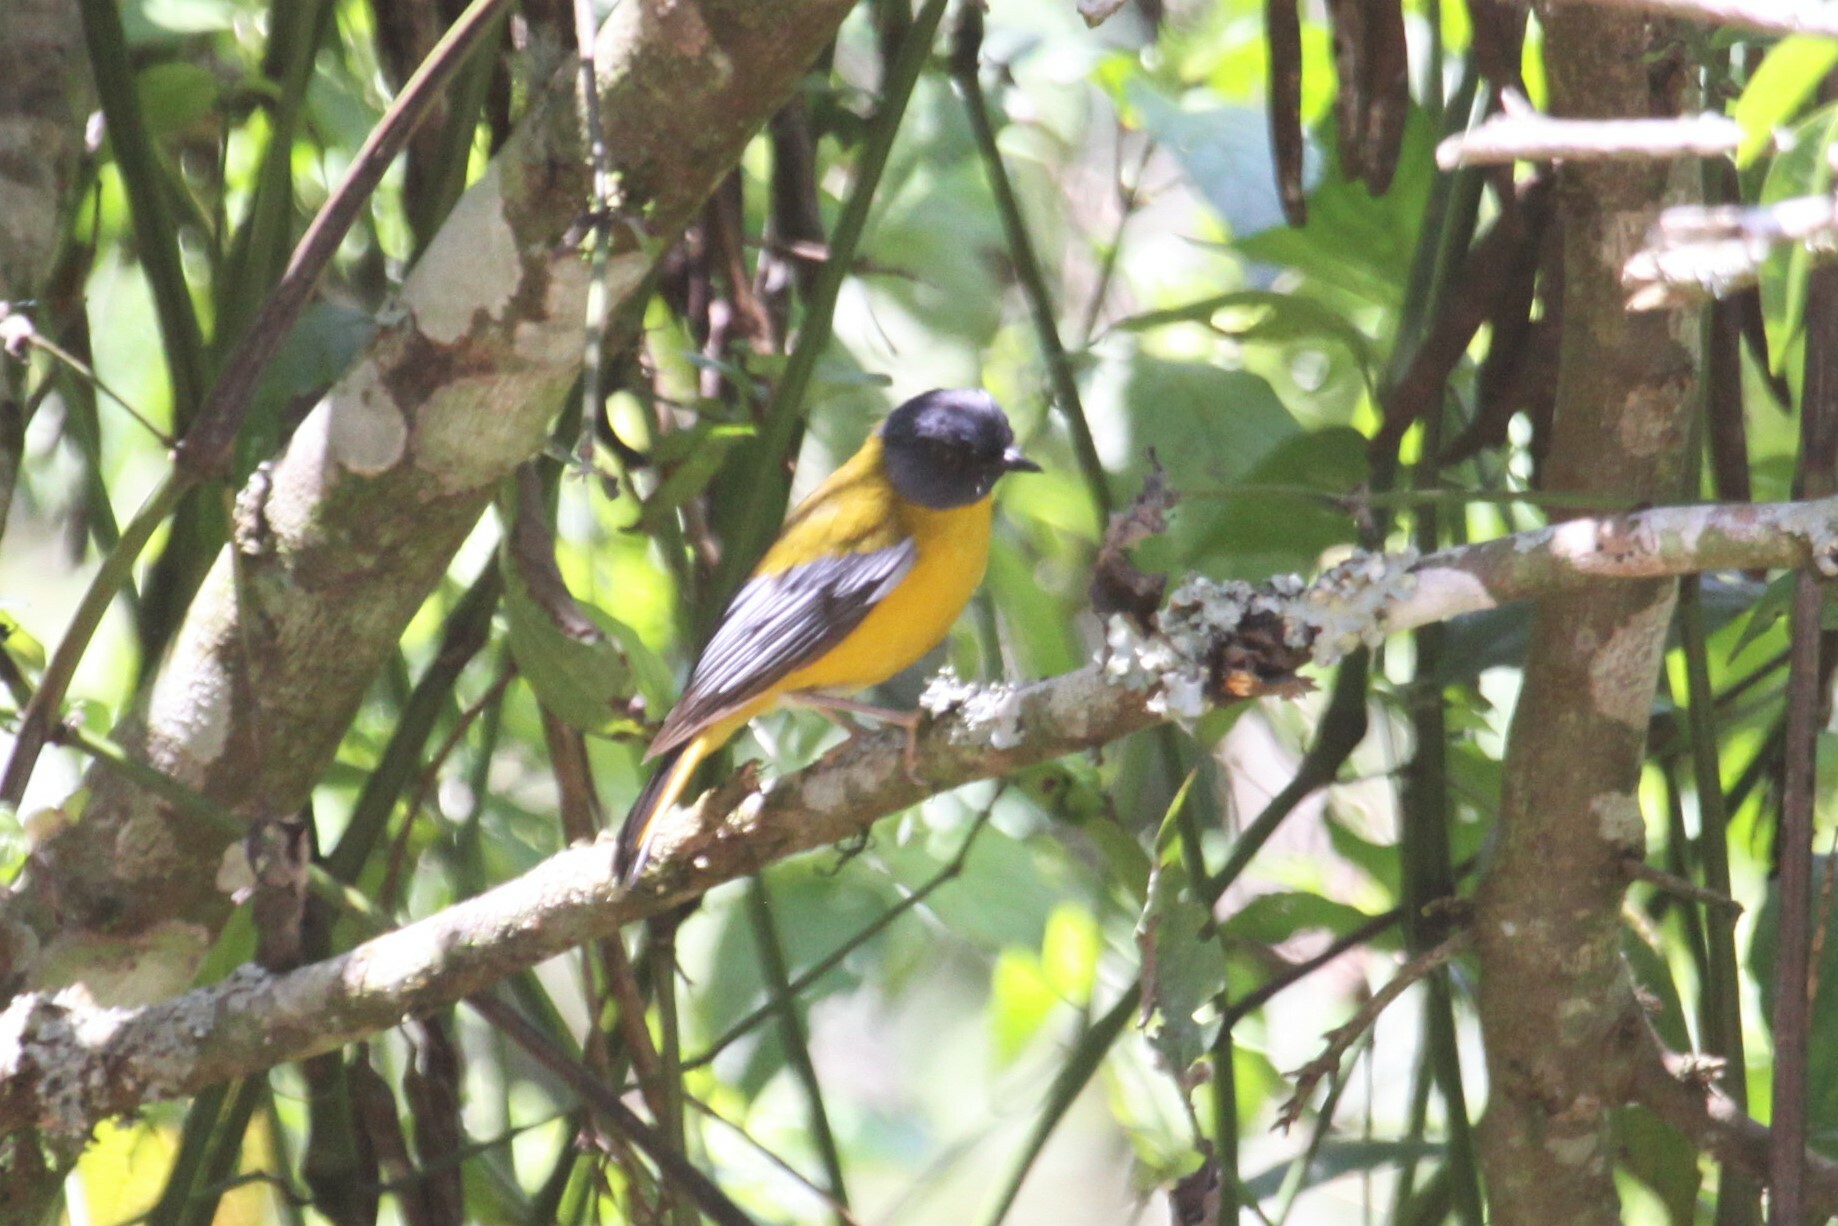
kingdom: Animalia
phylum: Chordata
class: Aves
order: Passeriformes
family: Muscicapidae
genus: Pogonocichla
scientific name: Pogonocichla stellata
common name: White-starred robin
